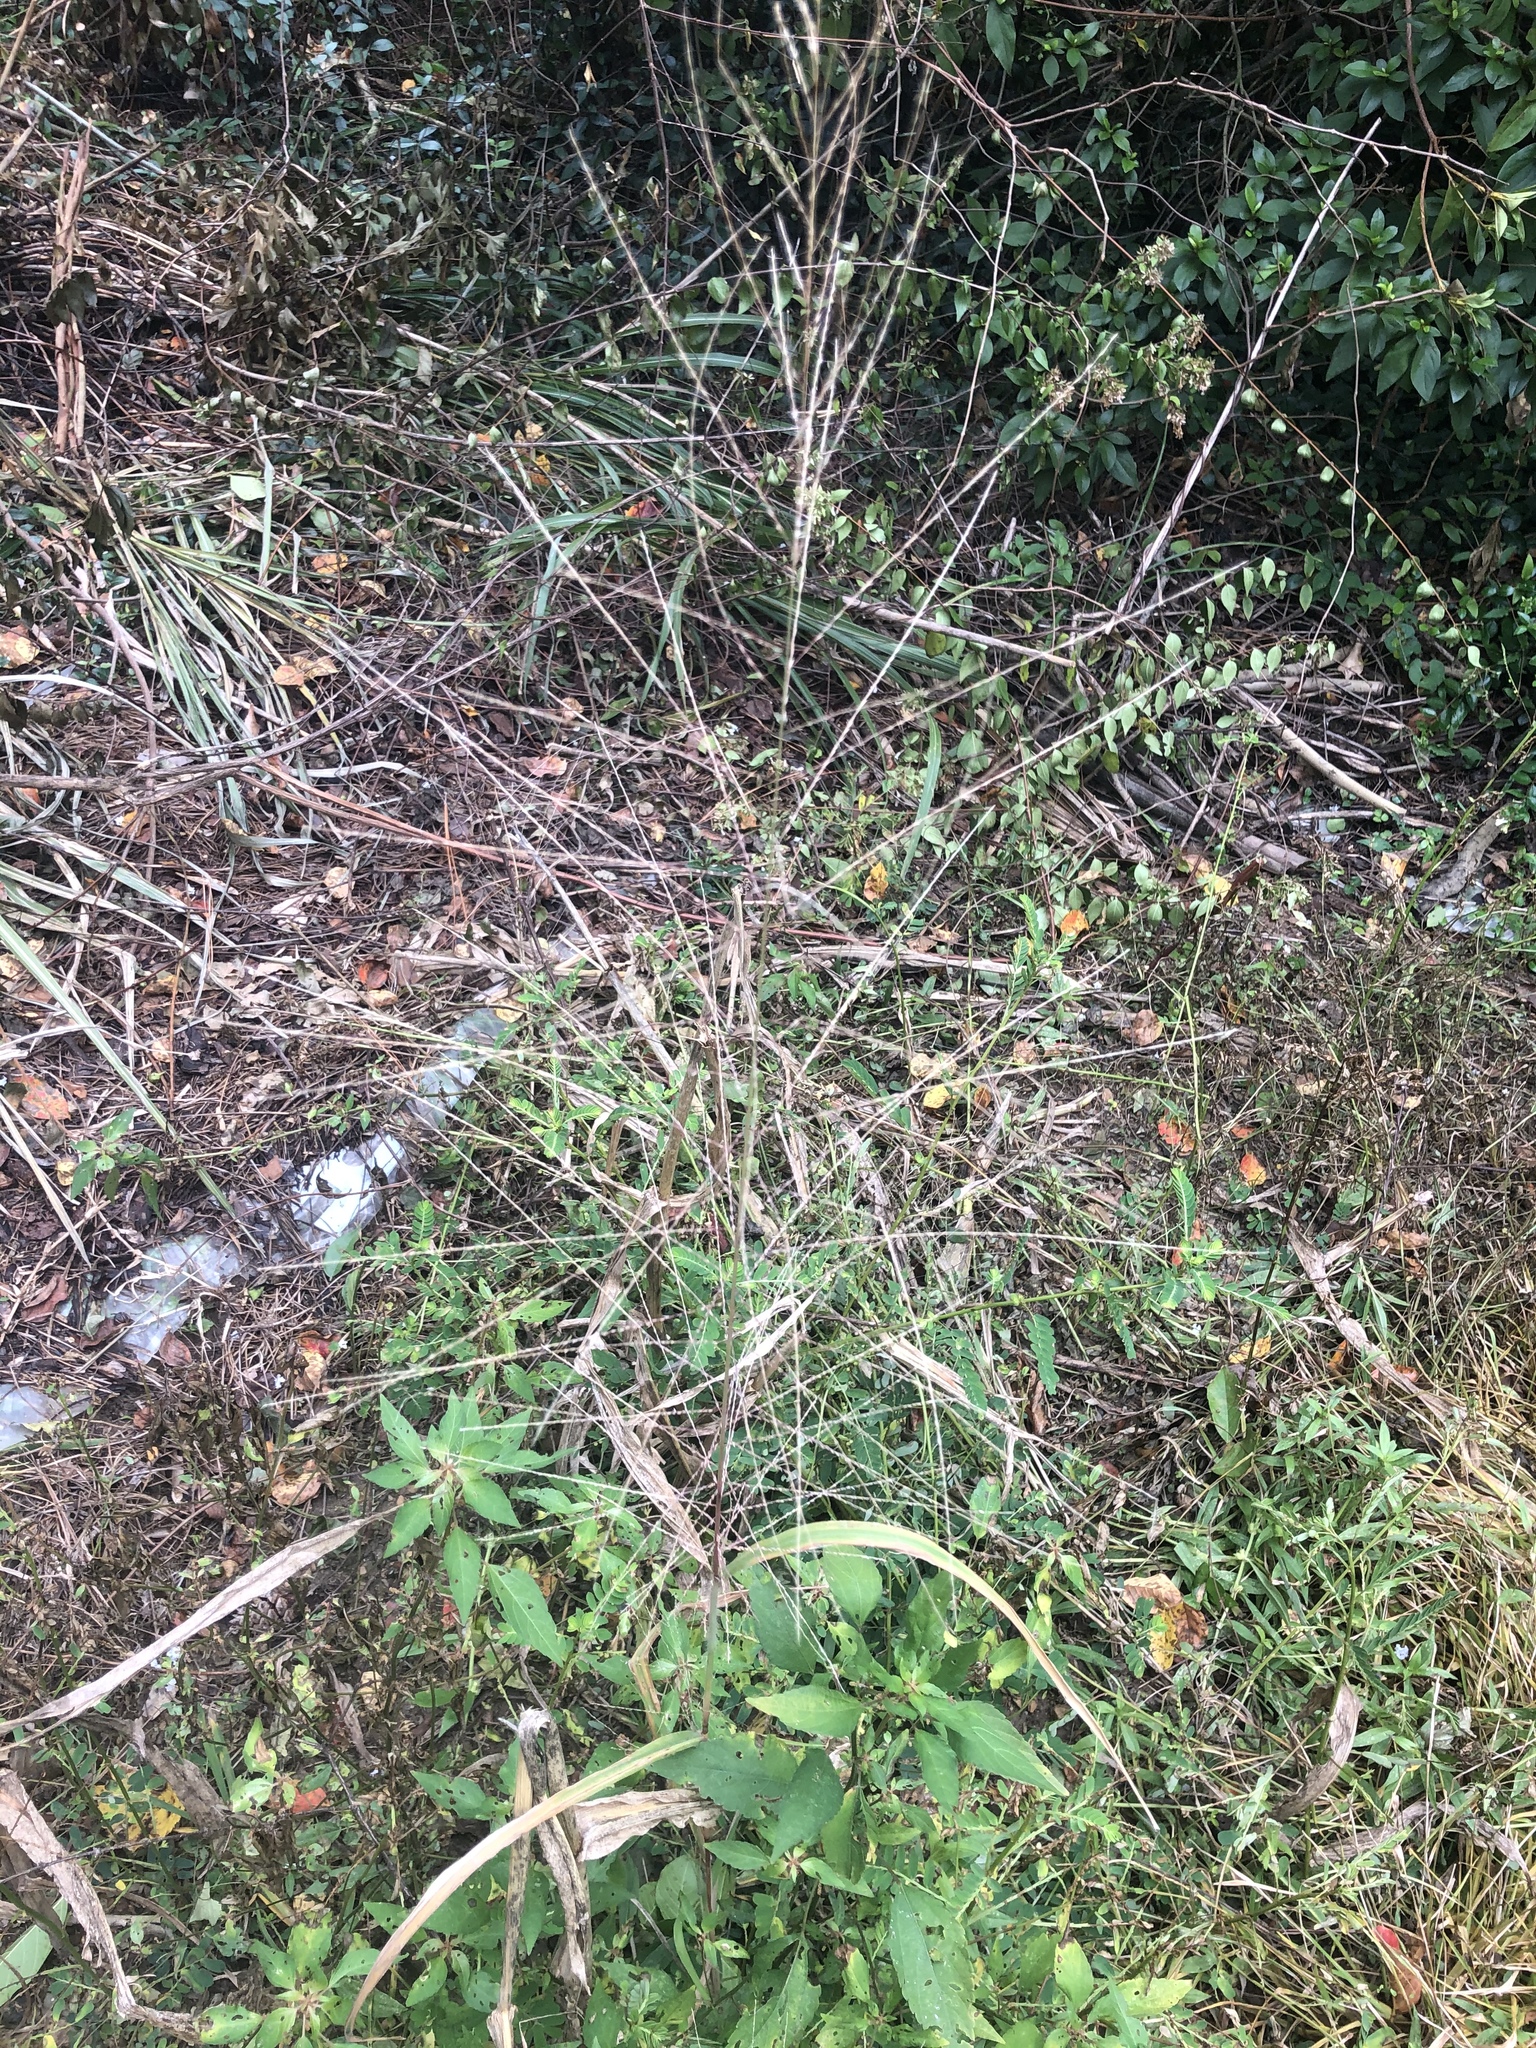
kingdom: Plantae
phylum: Tracheophyta
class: Liliopsida
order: Poales
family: Poaceae
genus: Leptochloa
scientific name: Leptochloa panicea
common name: Mucronate sprangletop
